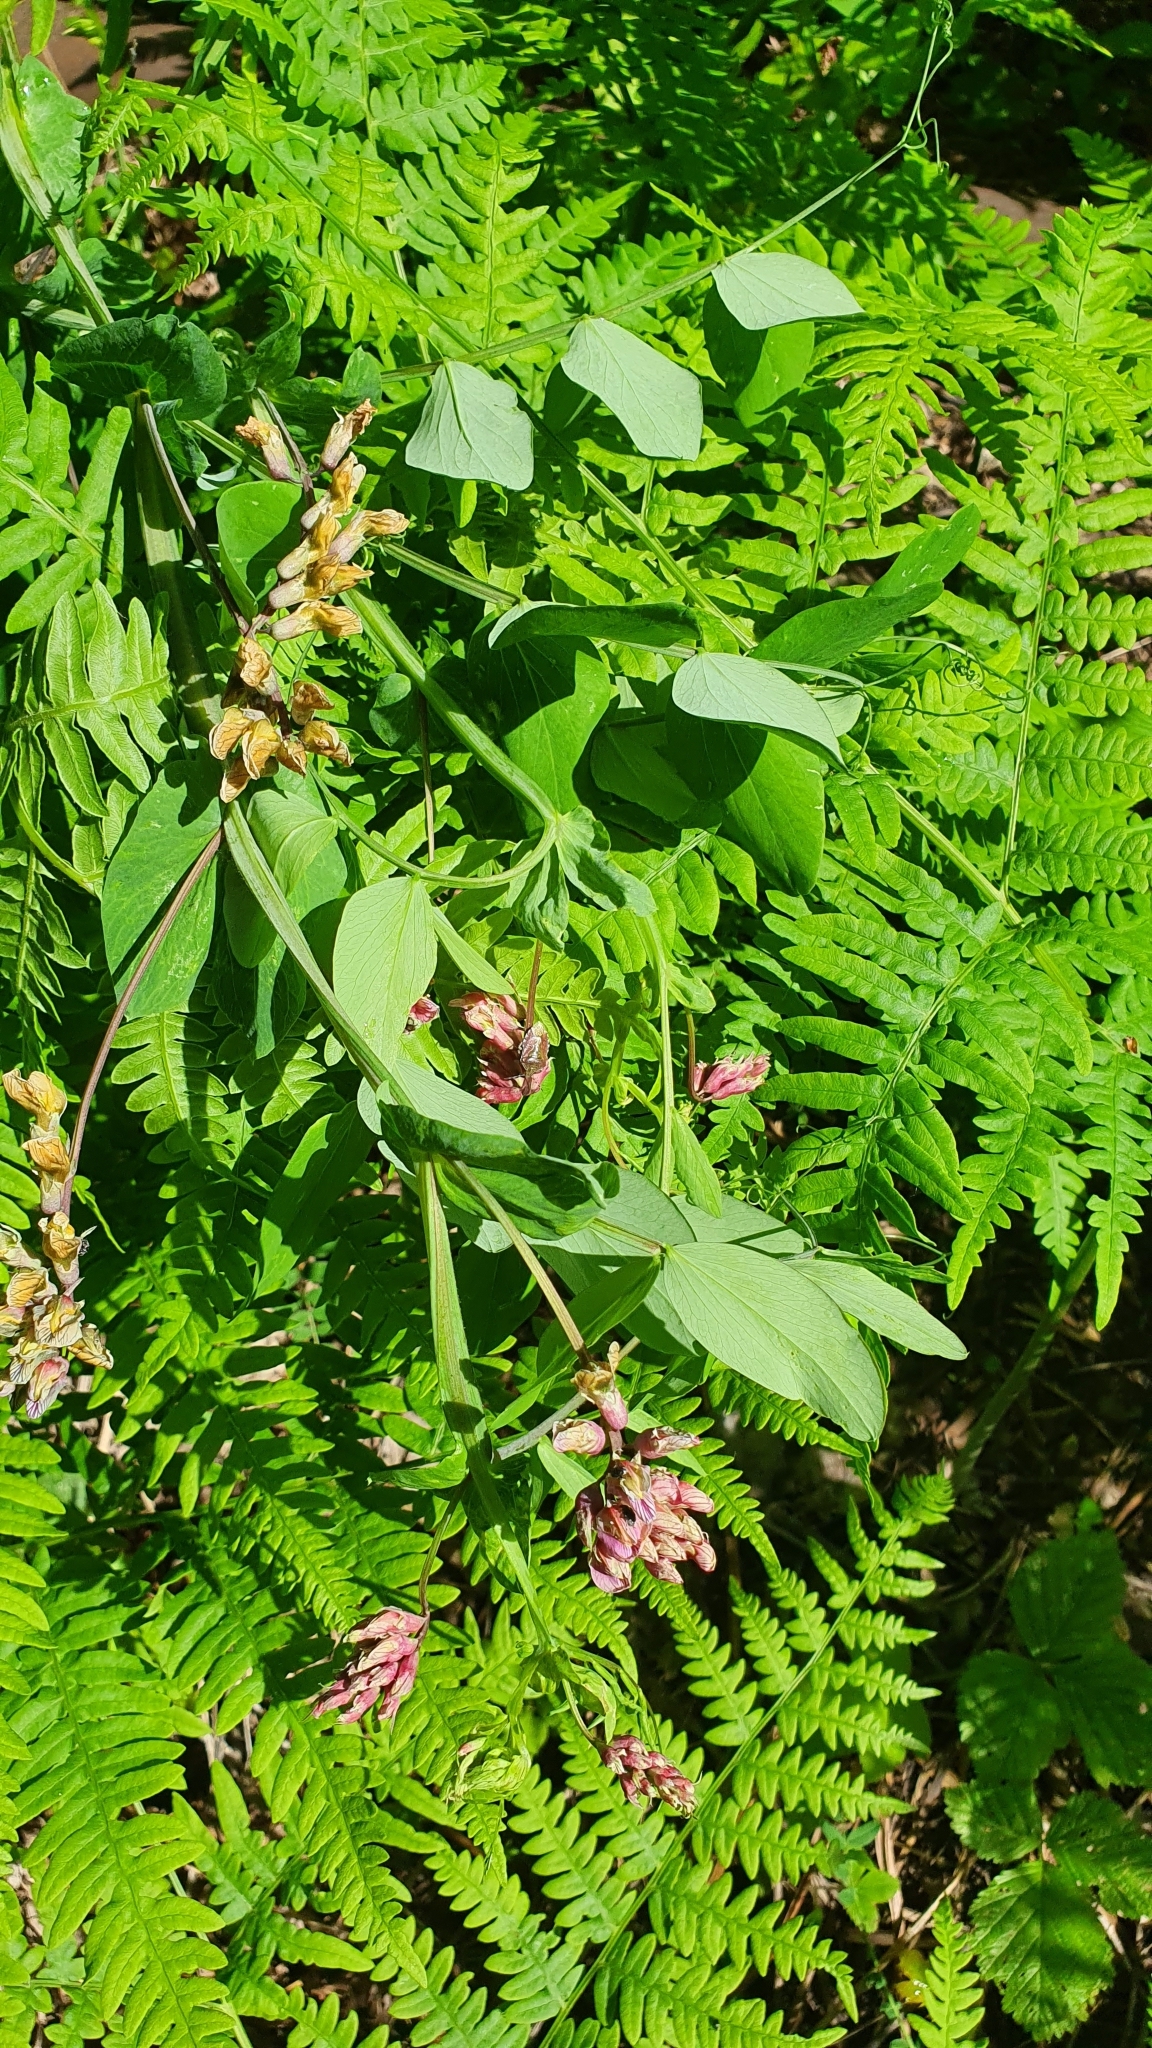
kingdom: Plantae
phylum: Tracheophyta
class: Magnoliopsida
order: Fabales
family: Fabaceae
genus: Lathyrus
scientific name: Lathyrus pisiformis
